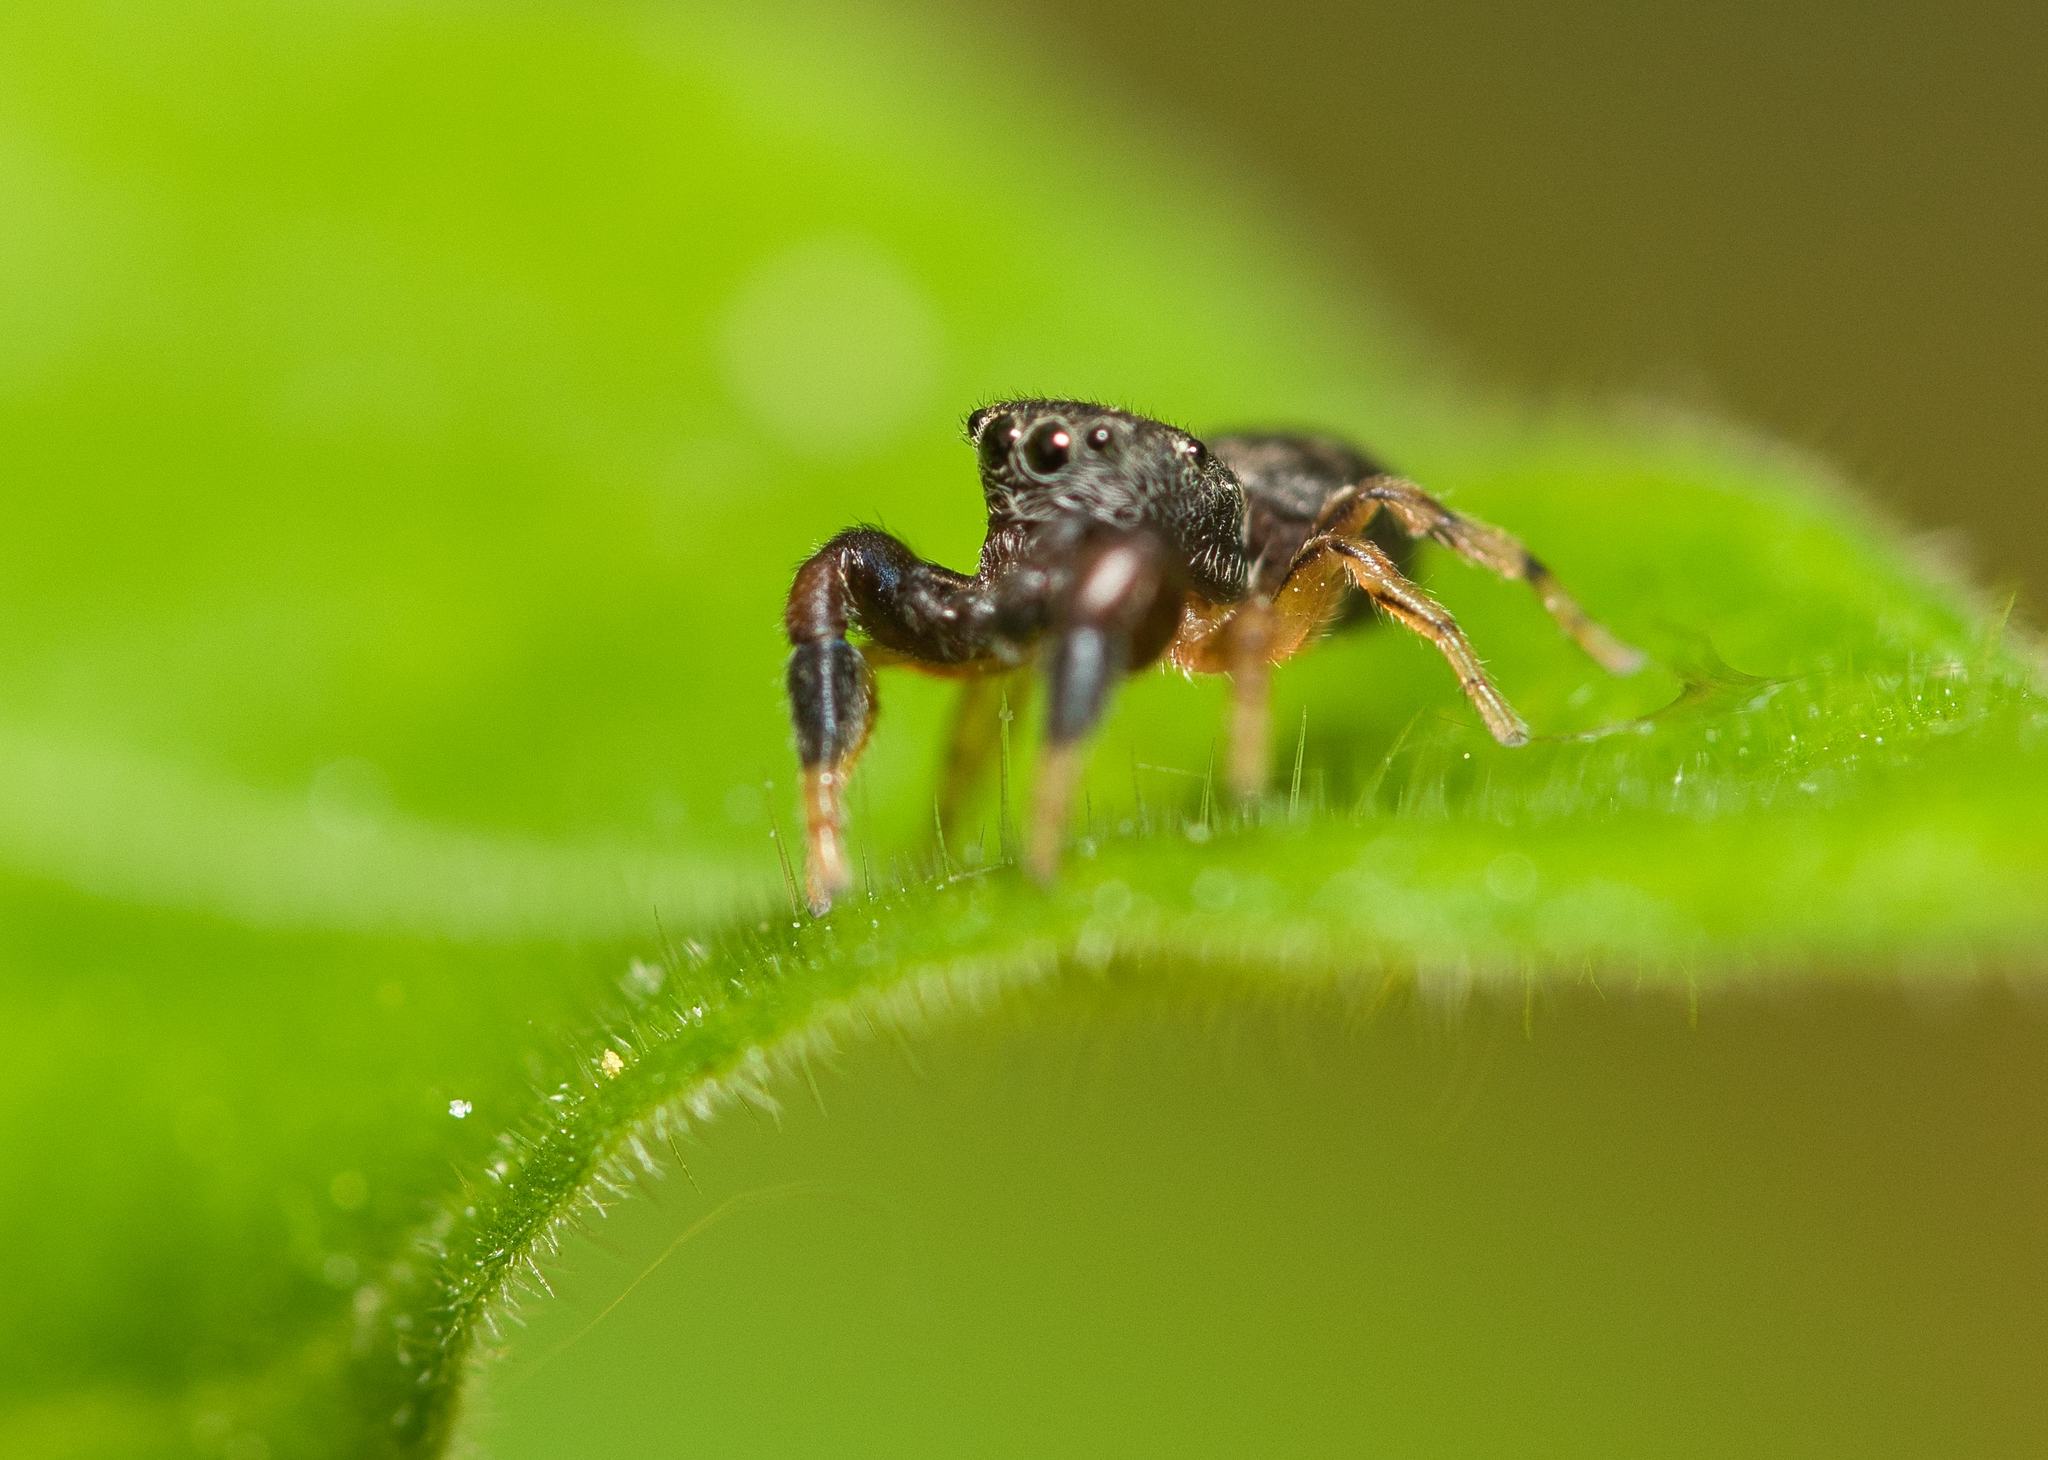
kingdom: Animalia
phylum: Arthropoda
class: Arachnida
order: Araneae
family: Salticidae
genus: Ballus
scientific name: Ballus chalybeius
